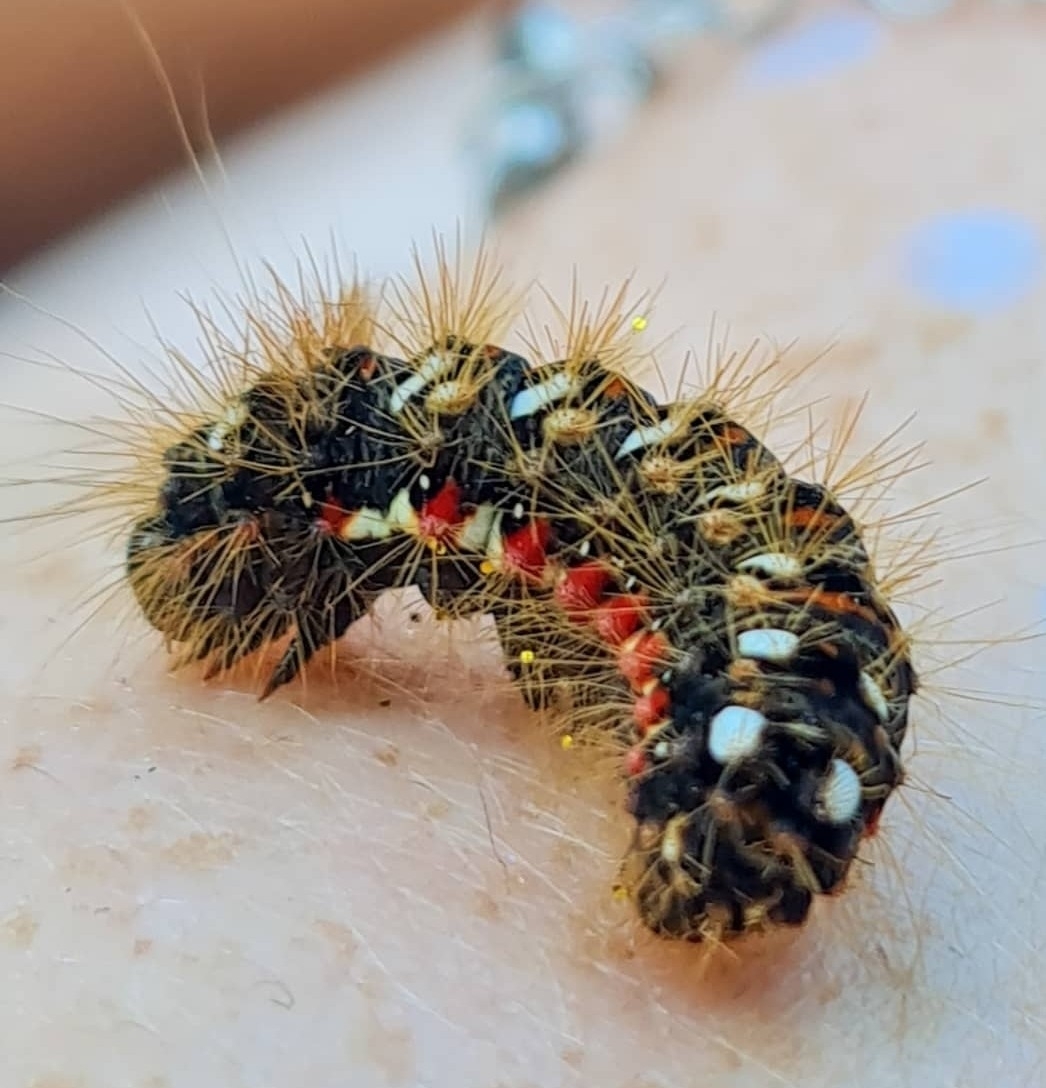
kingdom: Animalia
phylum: Arthropoda
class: Insecta
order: Lepidoptera
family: Noctuidae
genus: Acronicta
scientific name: Acronicta rumicis
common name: Knot grass
